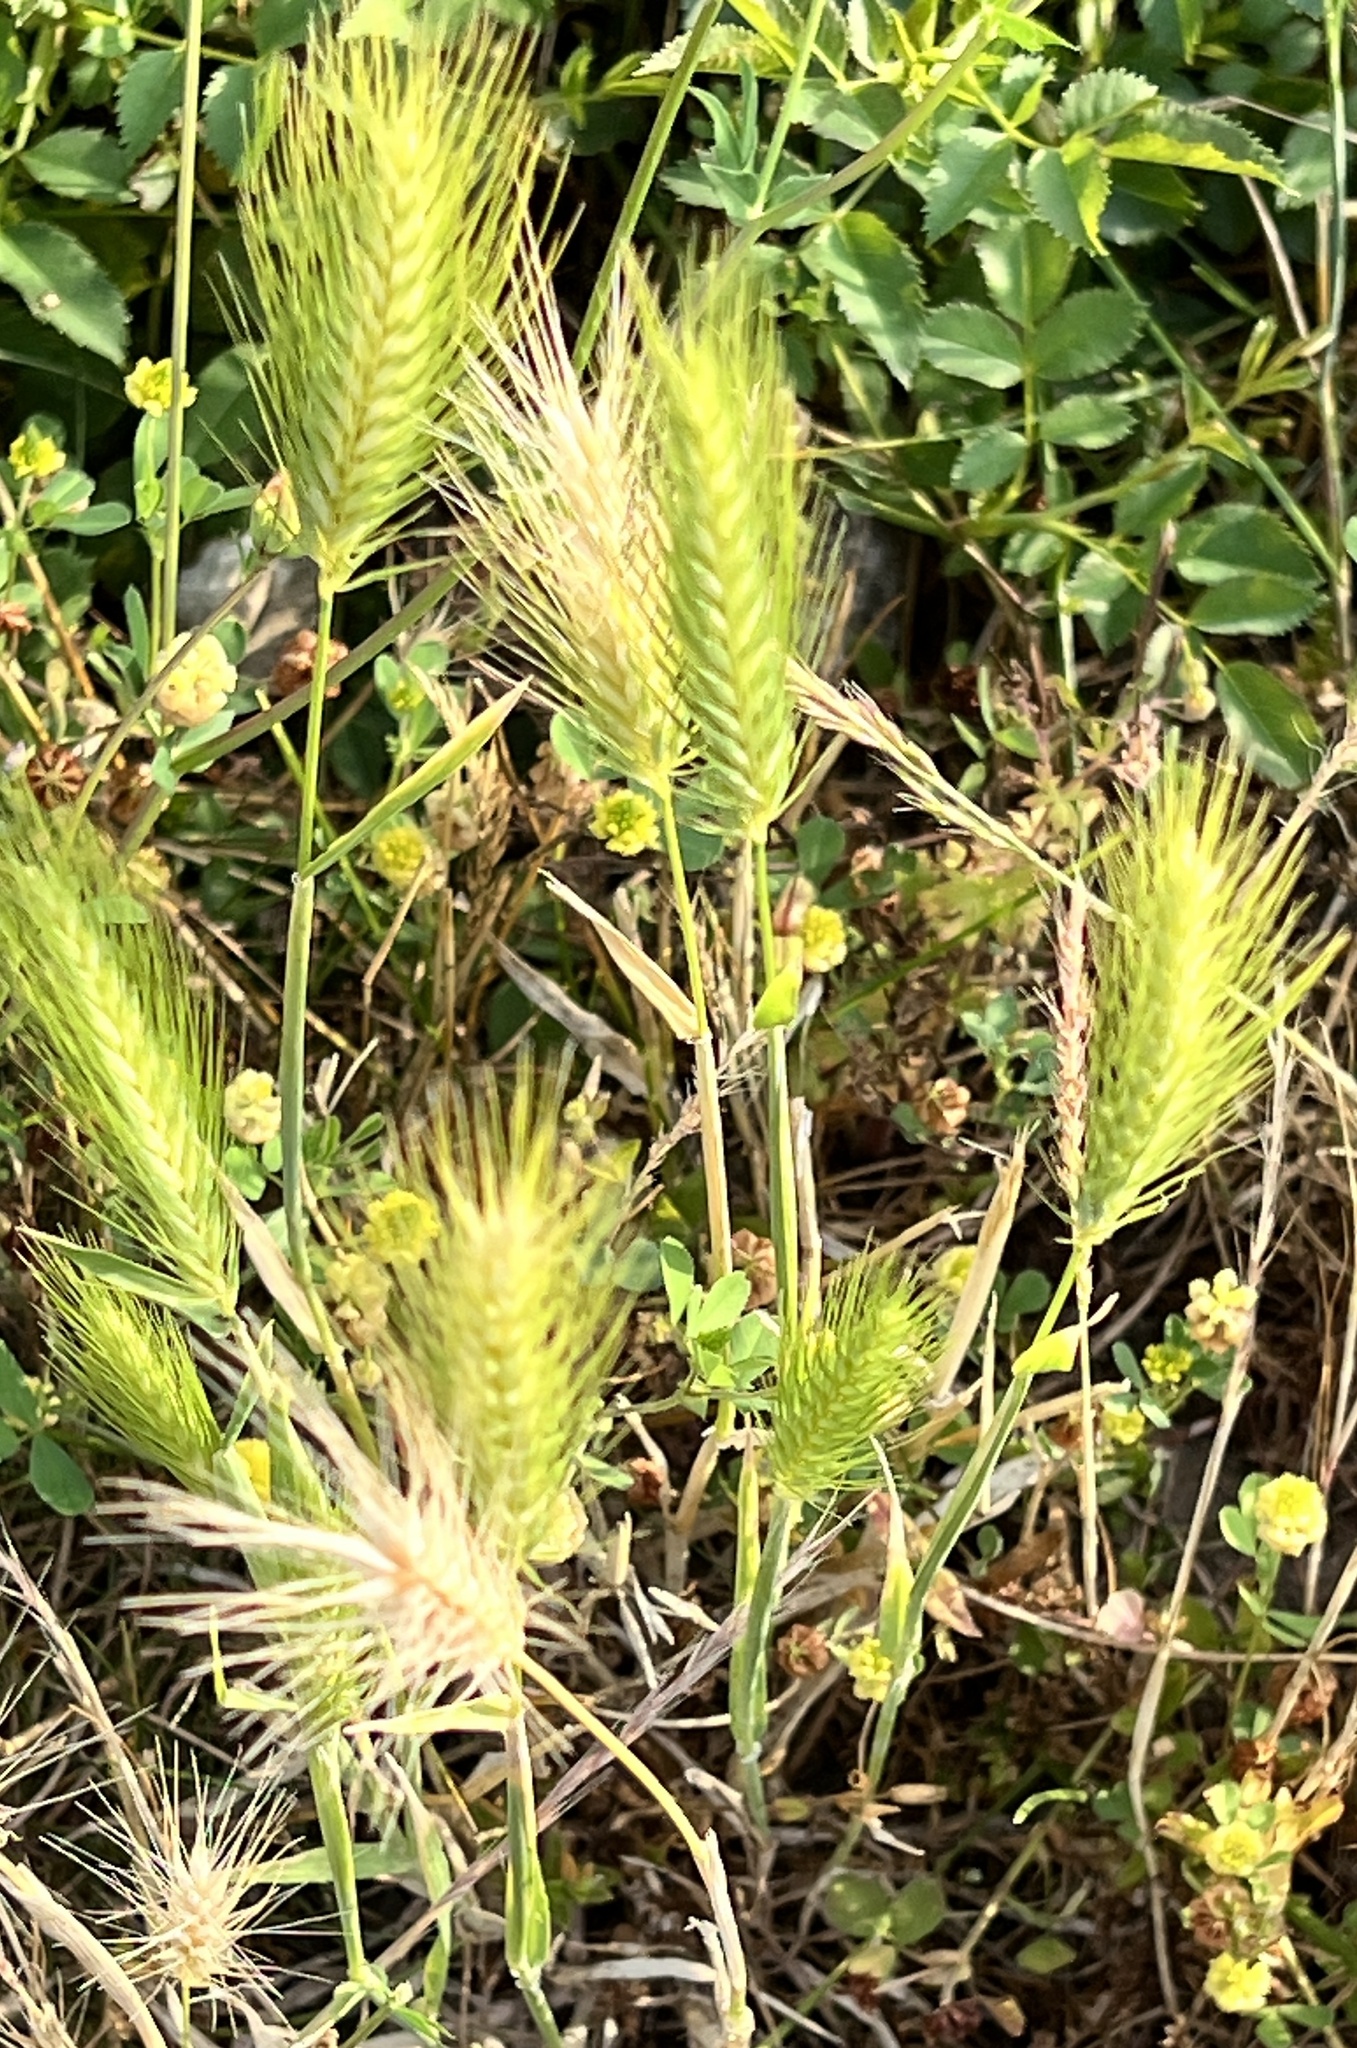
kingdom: Plantae
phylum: Tracheophyta
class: Liliopsida
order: Poales
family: Poaceae
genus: Hordeum
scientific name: Hordeum murinum
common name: Wall barley
